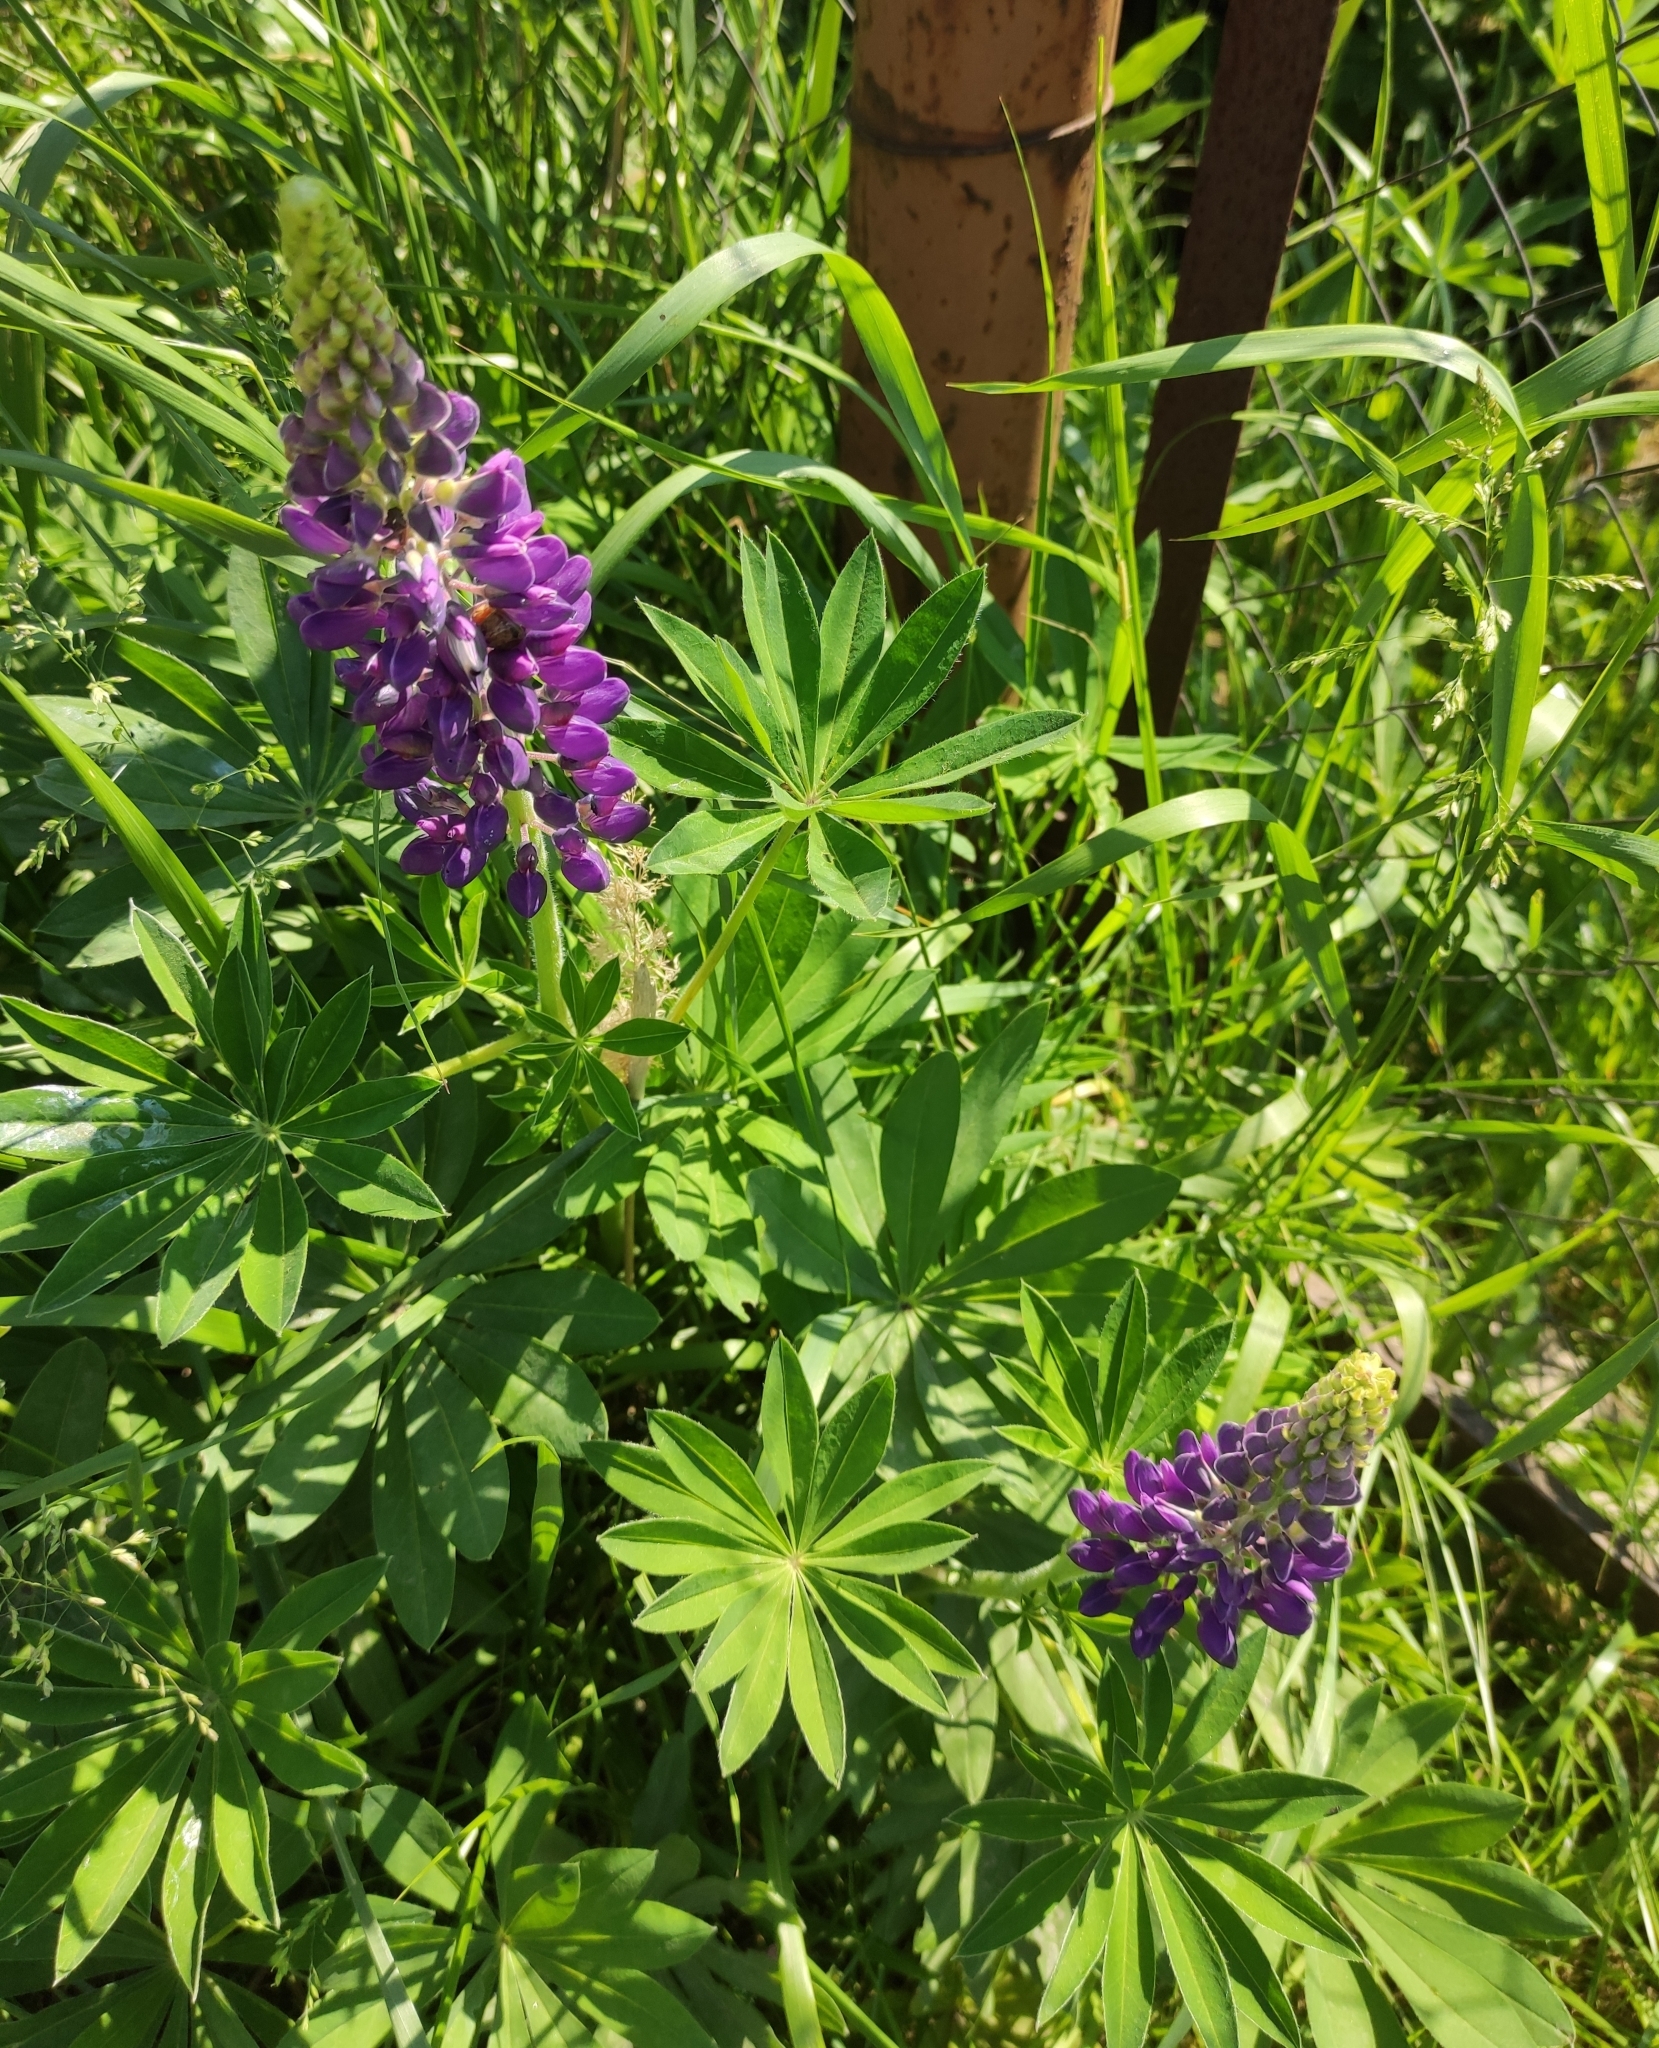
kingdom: Plantae
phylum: Tracheophyta
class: Magnoliopsida
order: Fabales
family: Fabaceae
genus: Lupinus
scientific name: Lupinus polyphyllus
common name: Garden lupin
